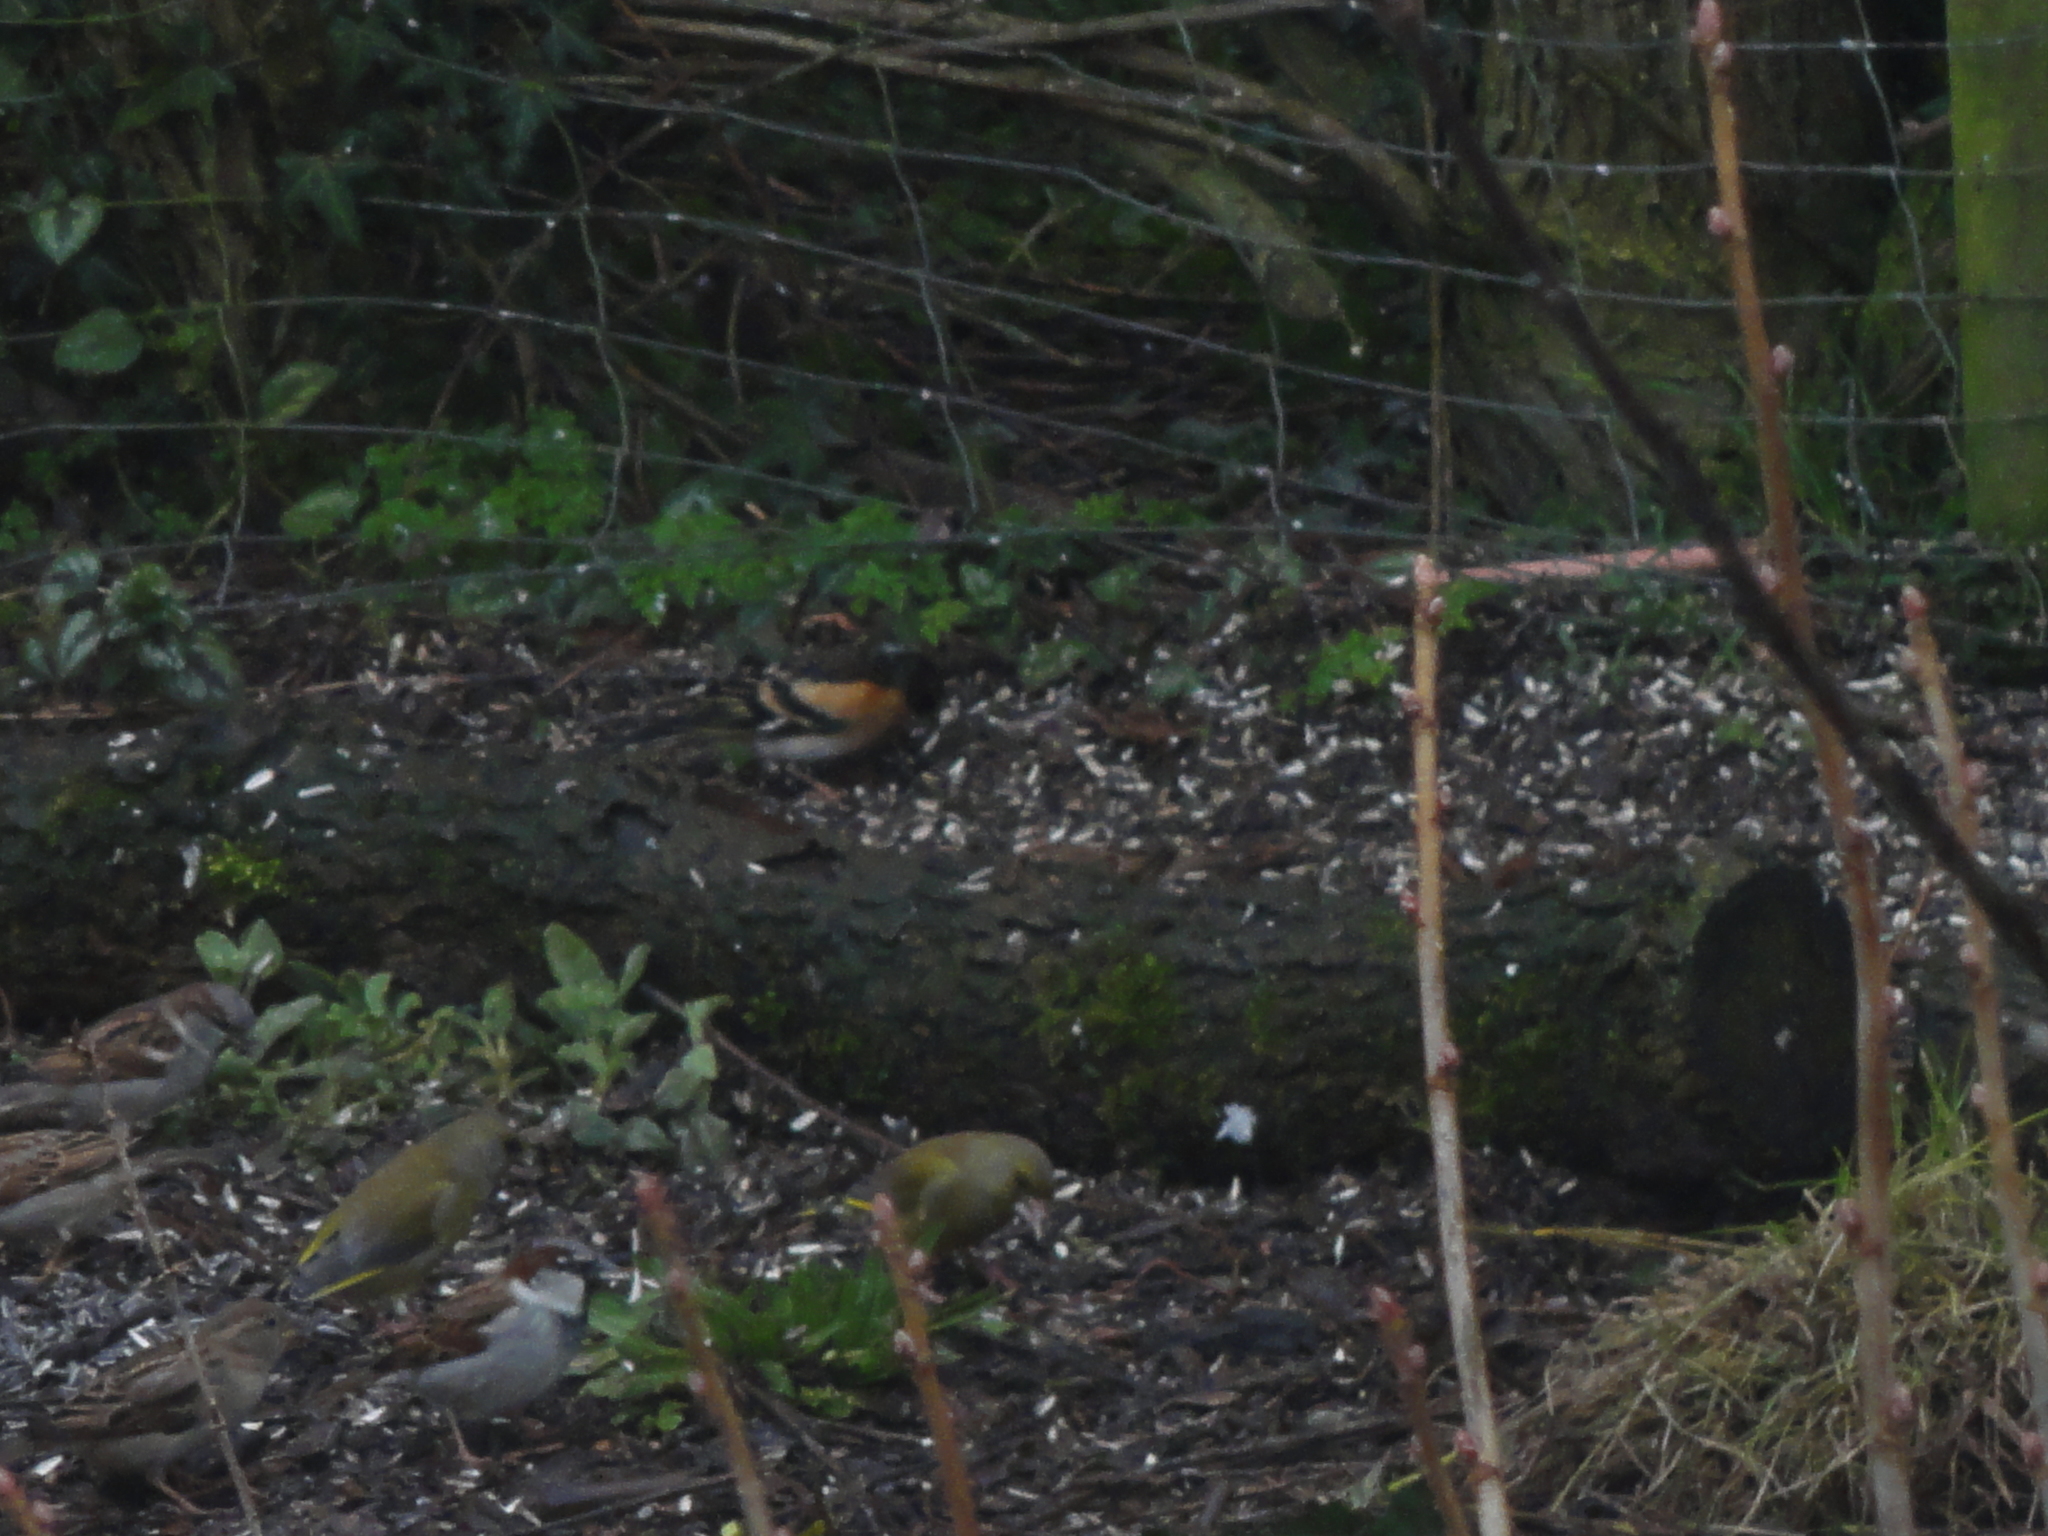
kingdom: Animalia
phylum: Chordata
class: Aves
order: Passeriformes
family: Passeridae
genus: Passer
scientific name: Passer domesticus
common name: House sparrow
